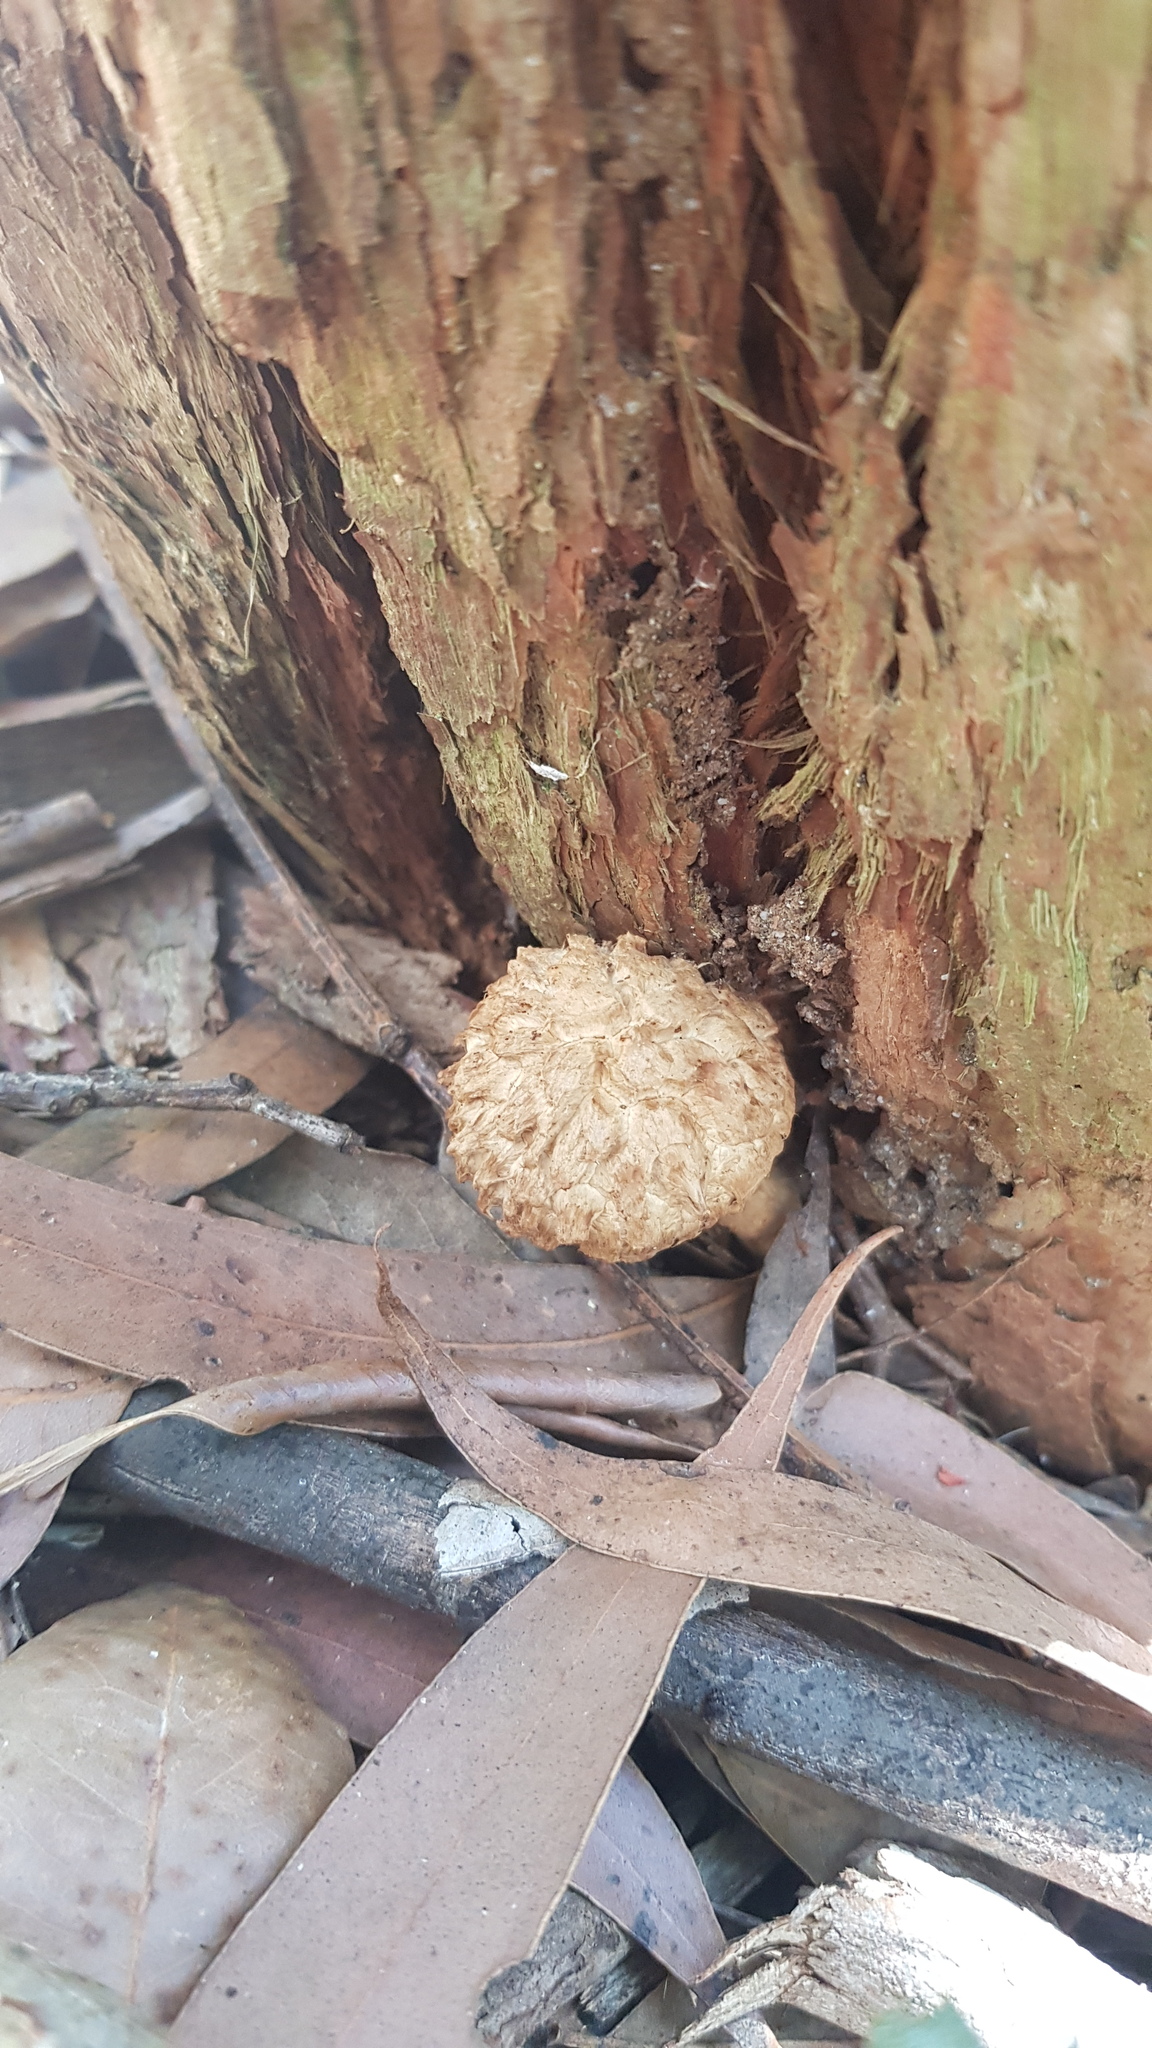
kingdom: Fungi
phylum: Basidiomycota
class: Agaricomycetes
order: Boletales
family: Boletaceae
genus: Boletellus
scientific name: Boletellus dissiliens
